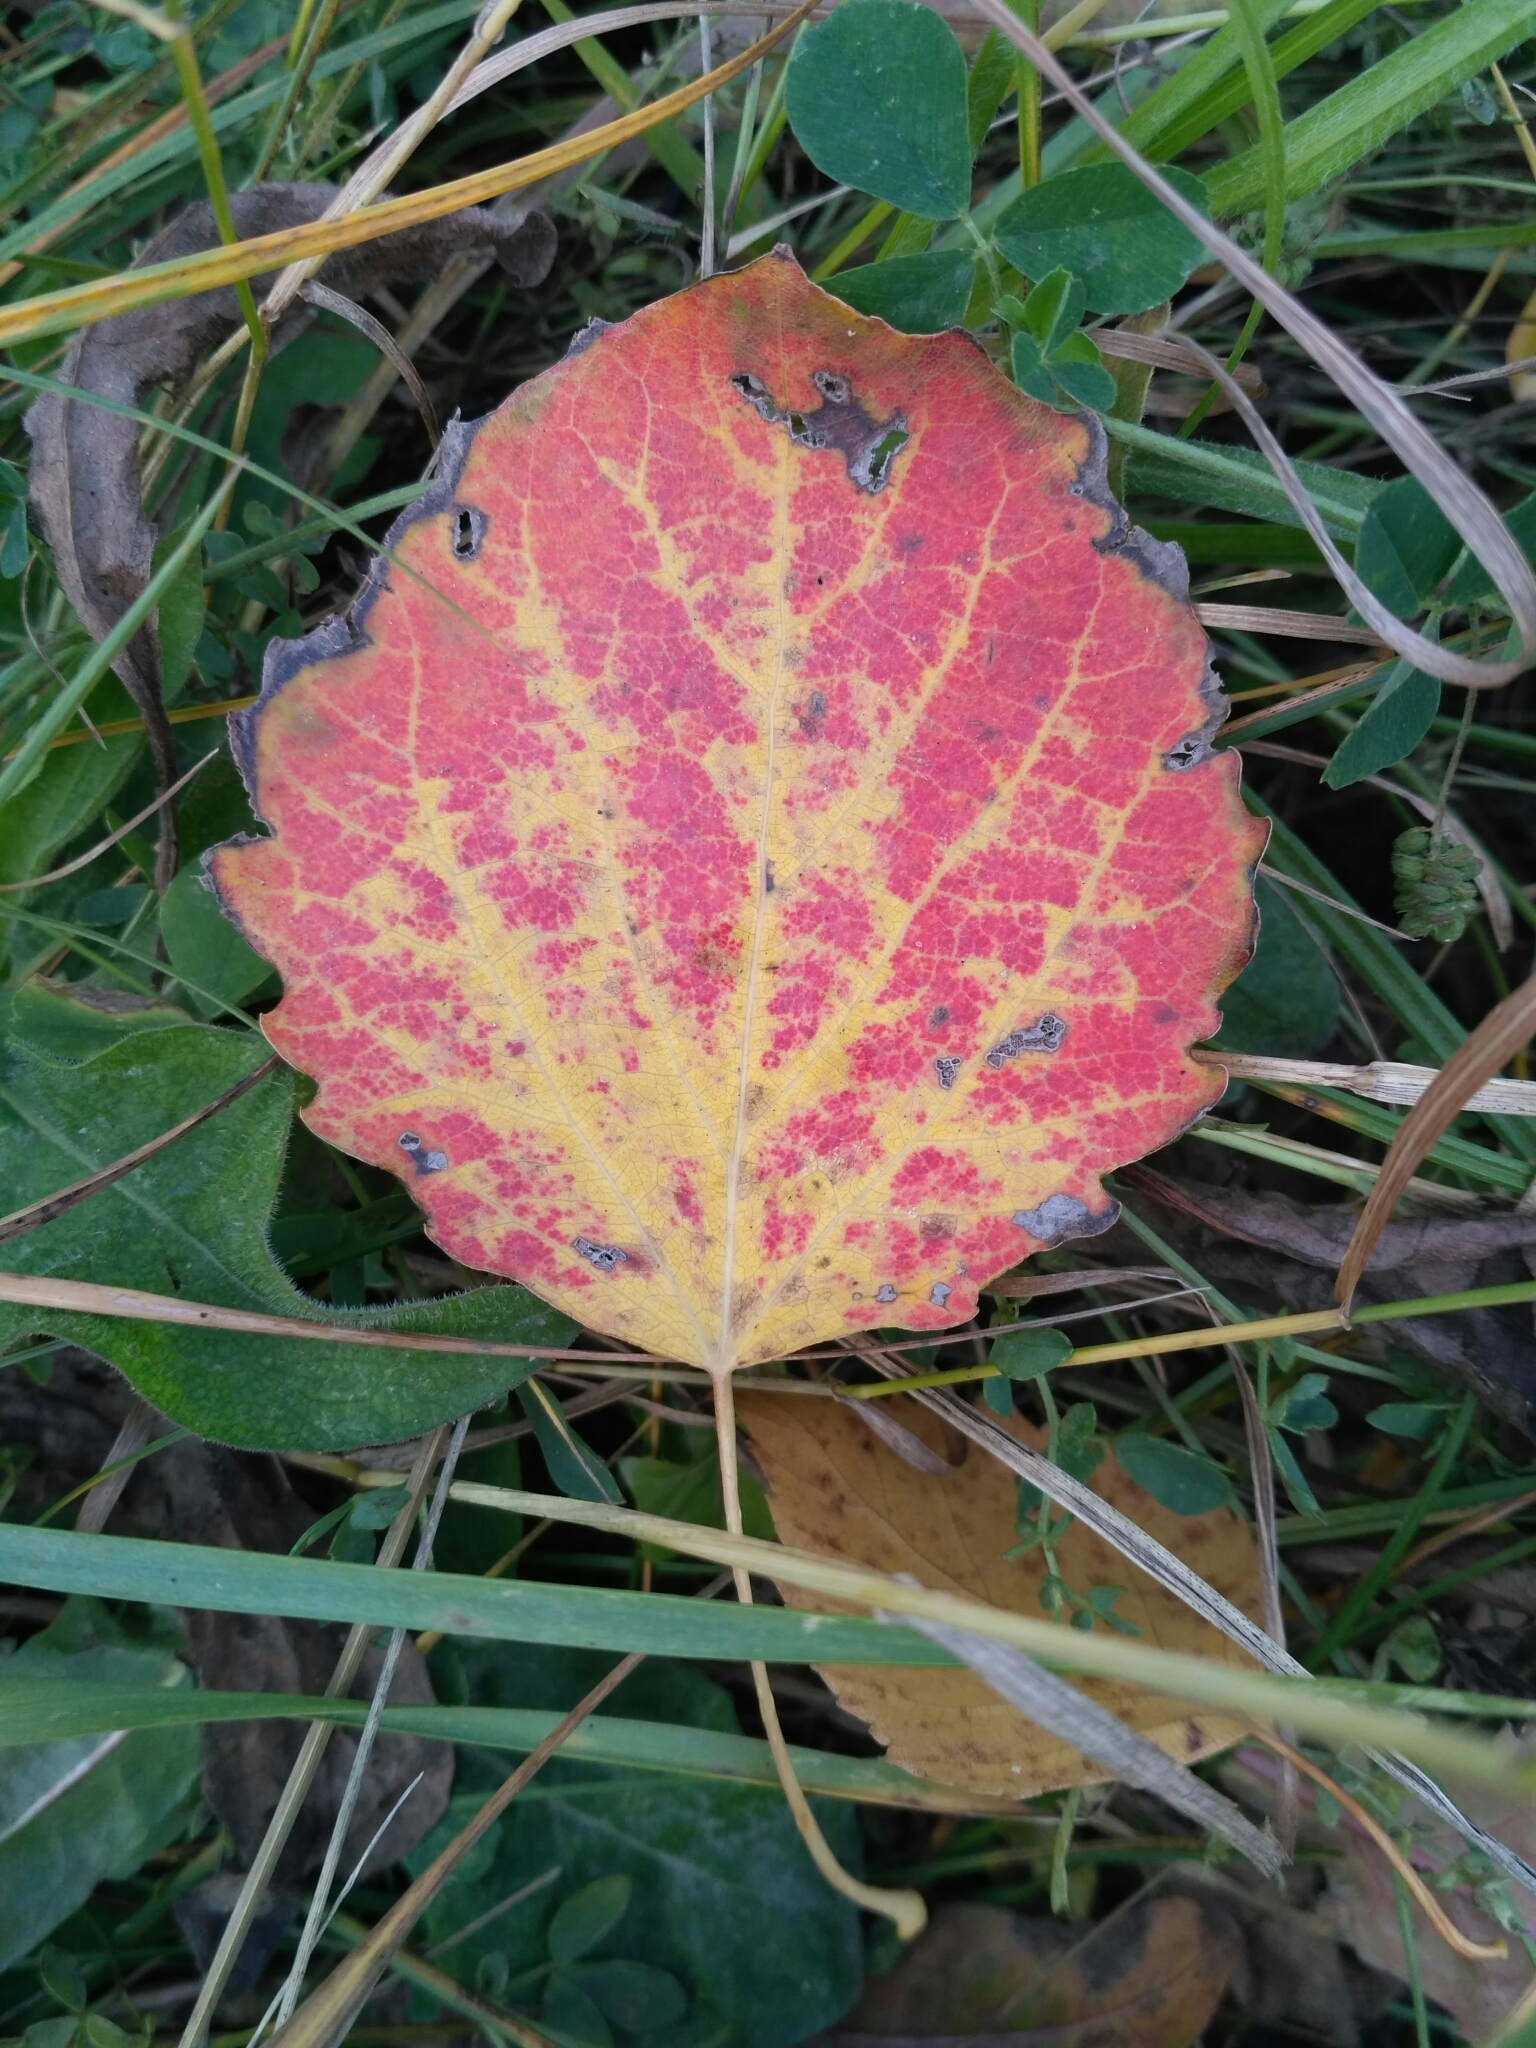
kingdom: Plantae
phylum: Tracheophyta
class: Magnoliopsida
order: Malpighiales
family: Salicaceae
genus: Populus
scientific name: Populus tremula
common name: European aspen
